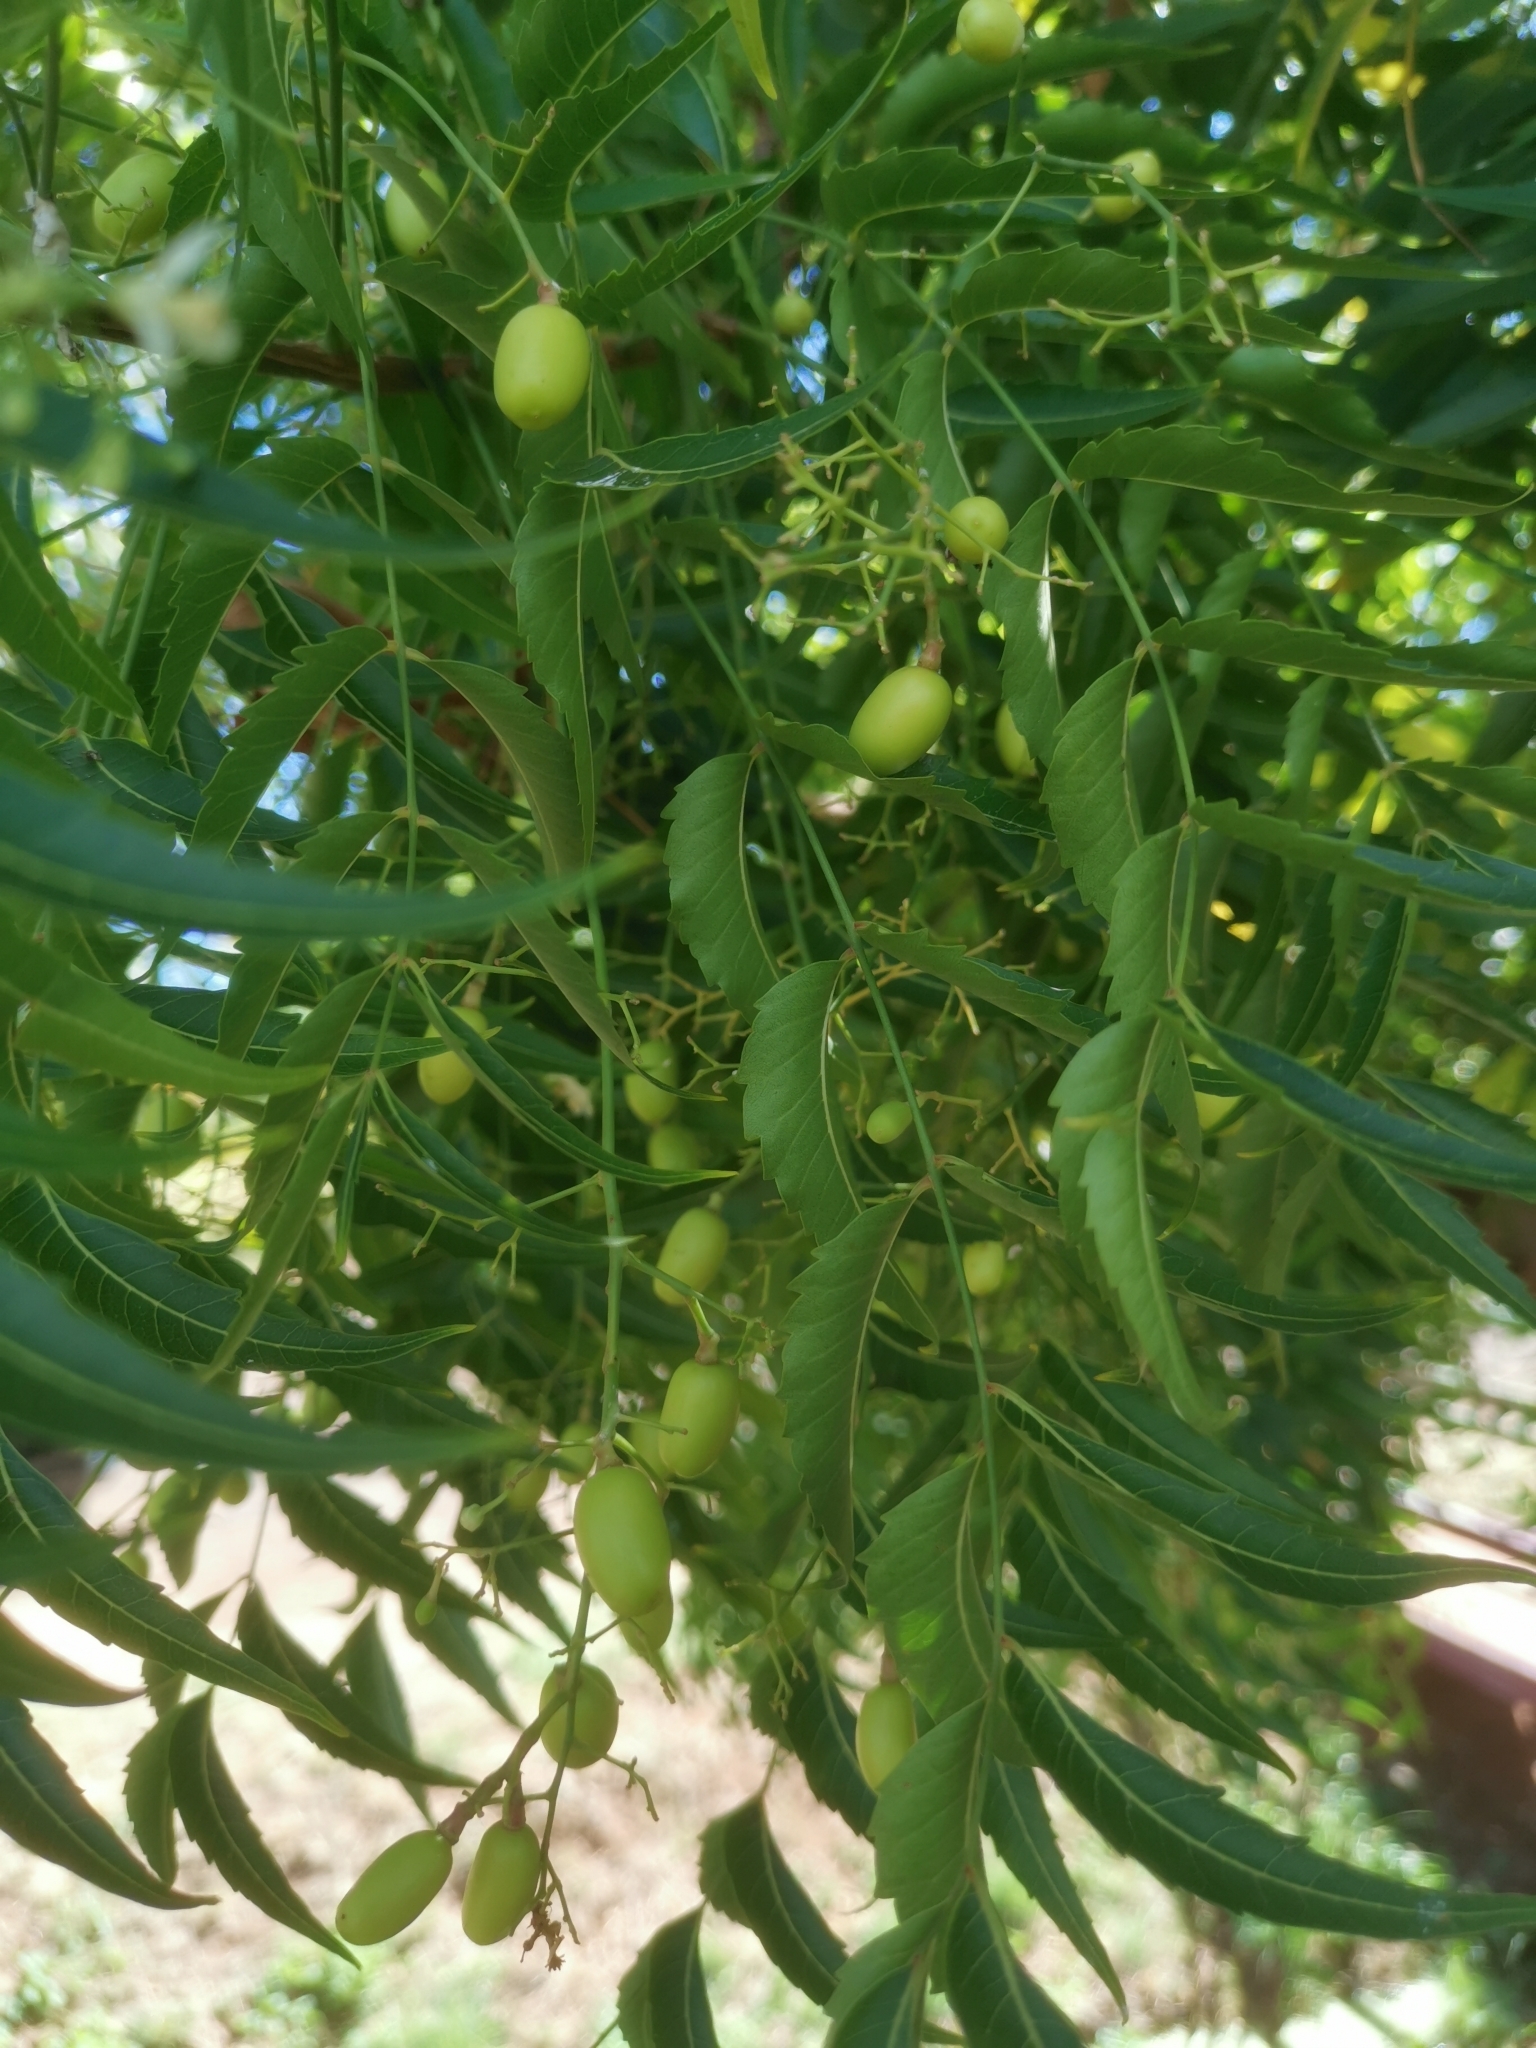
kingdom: Plantae
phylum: Tracheophyta
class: Magnoliopsida
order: Sapindales
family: Meliaceae
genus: Azadirachta
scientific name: Azadirachta indica
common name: Neem
